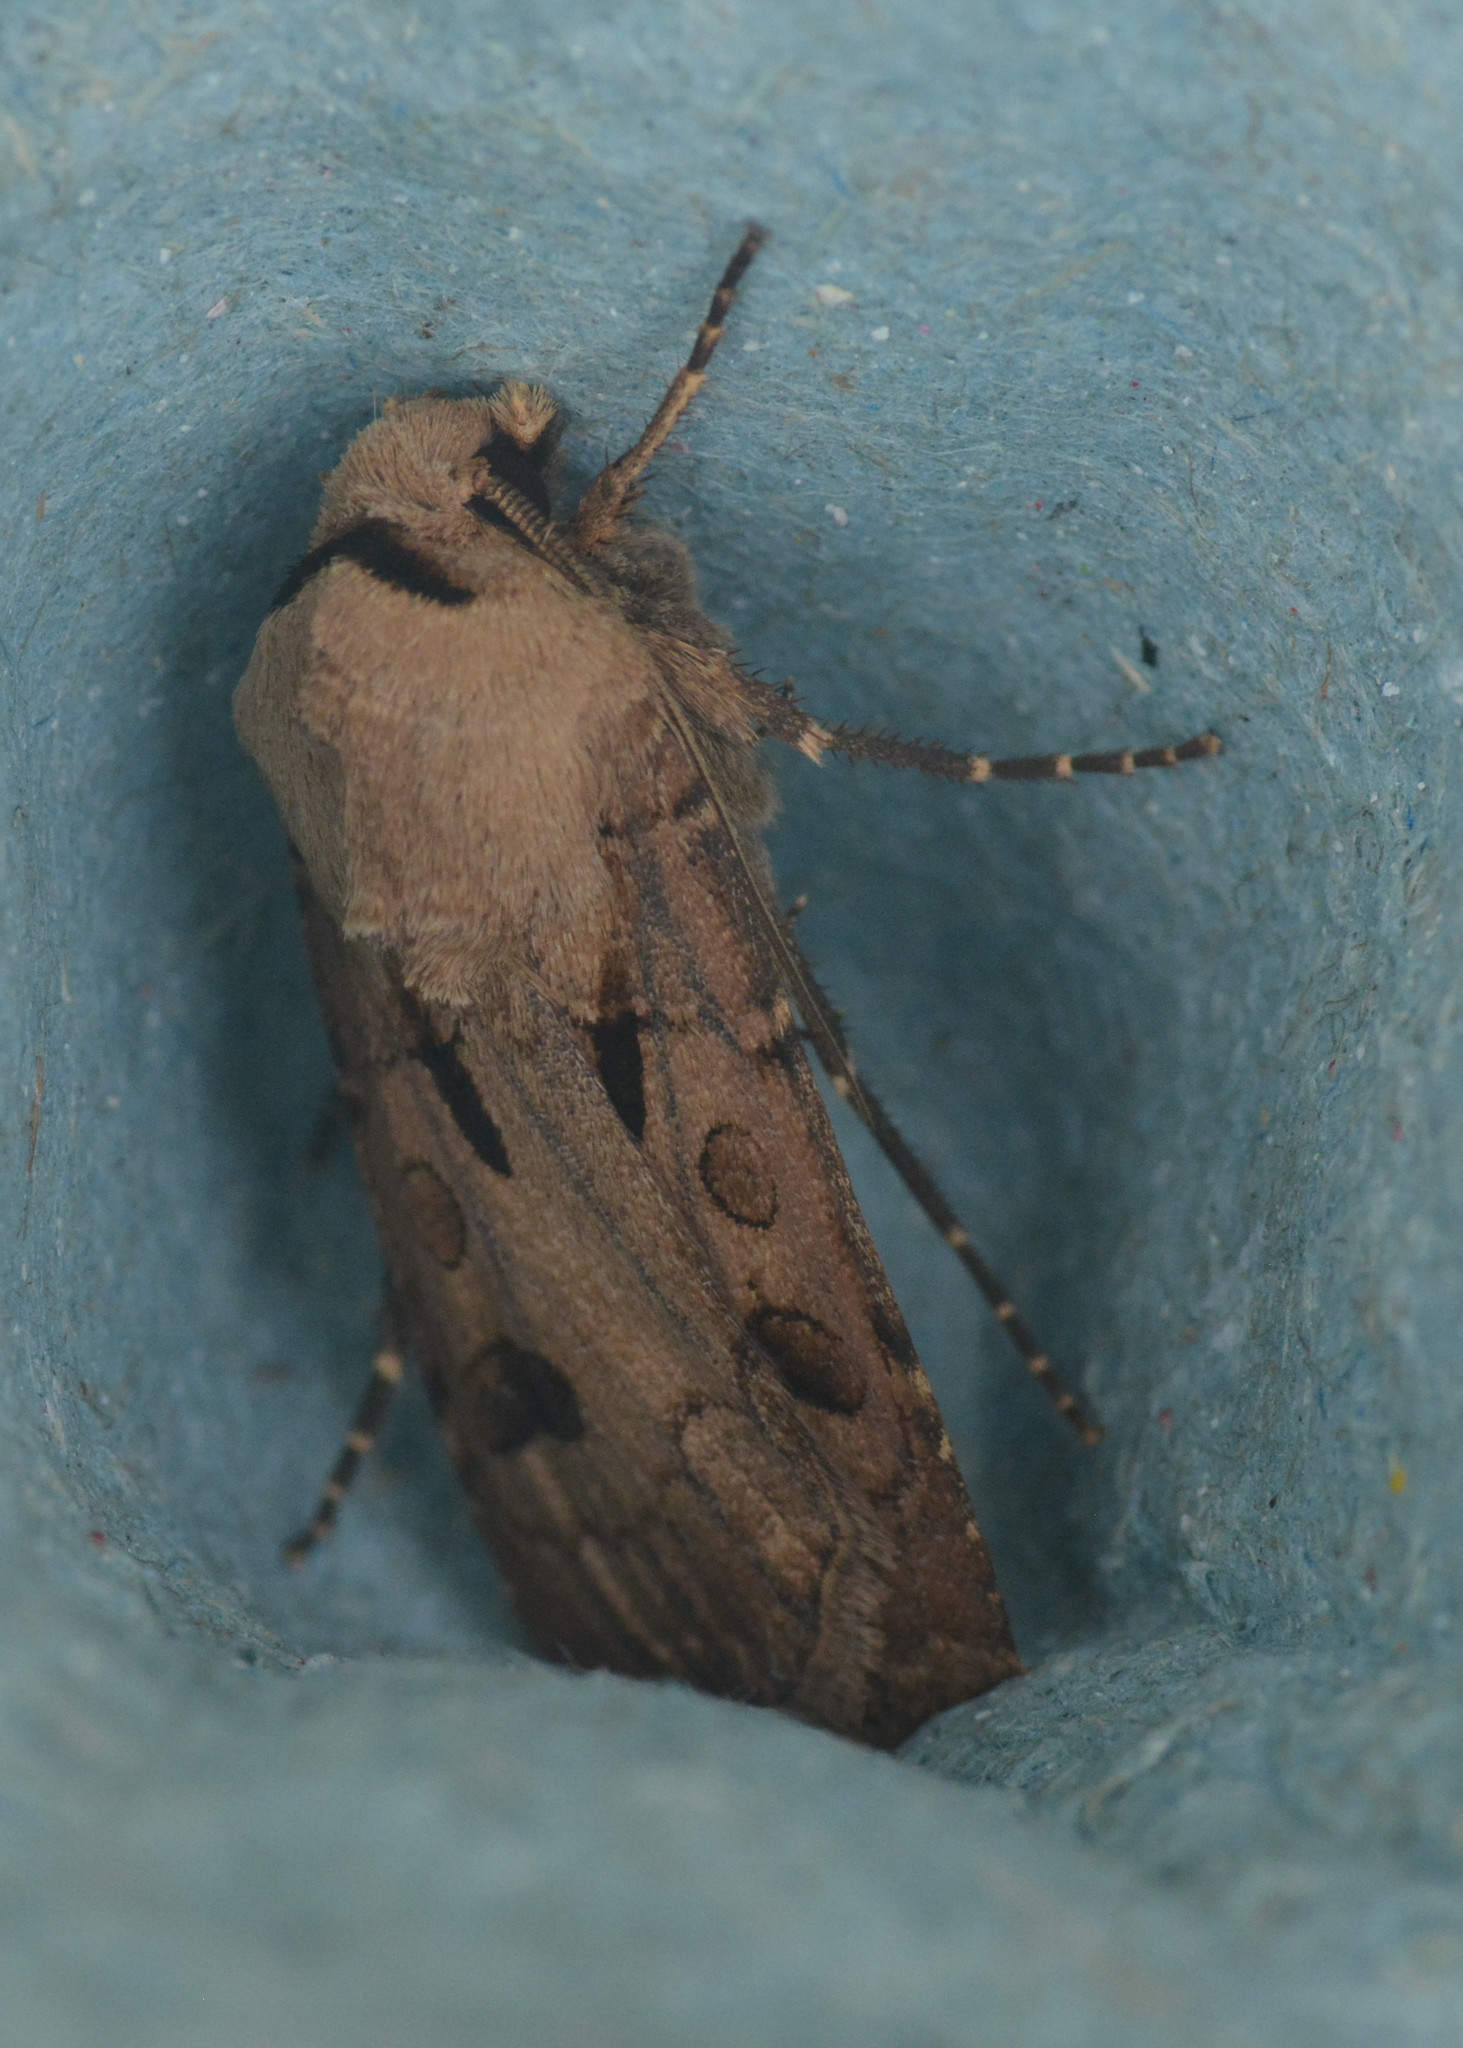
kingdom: Animalia
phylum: Arthropoda
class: Insecta
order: Lepidoptera
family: Noctuidae
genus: Agrotis
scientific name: Agrotis exclamationis
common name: Heart and dart
